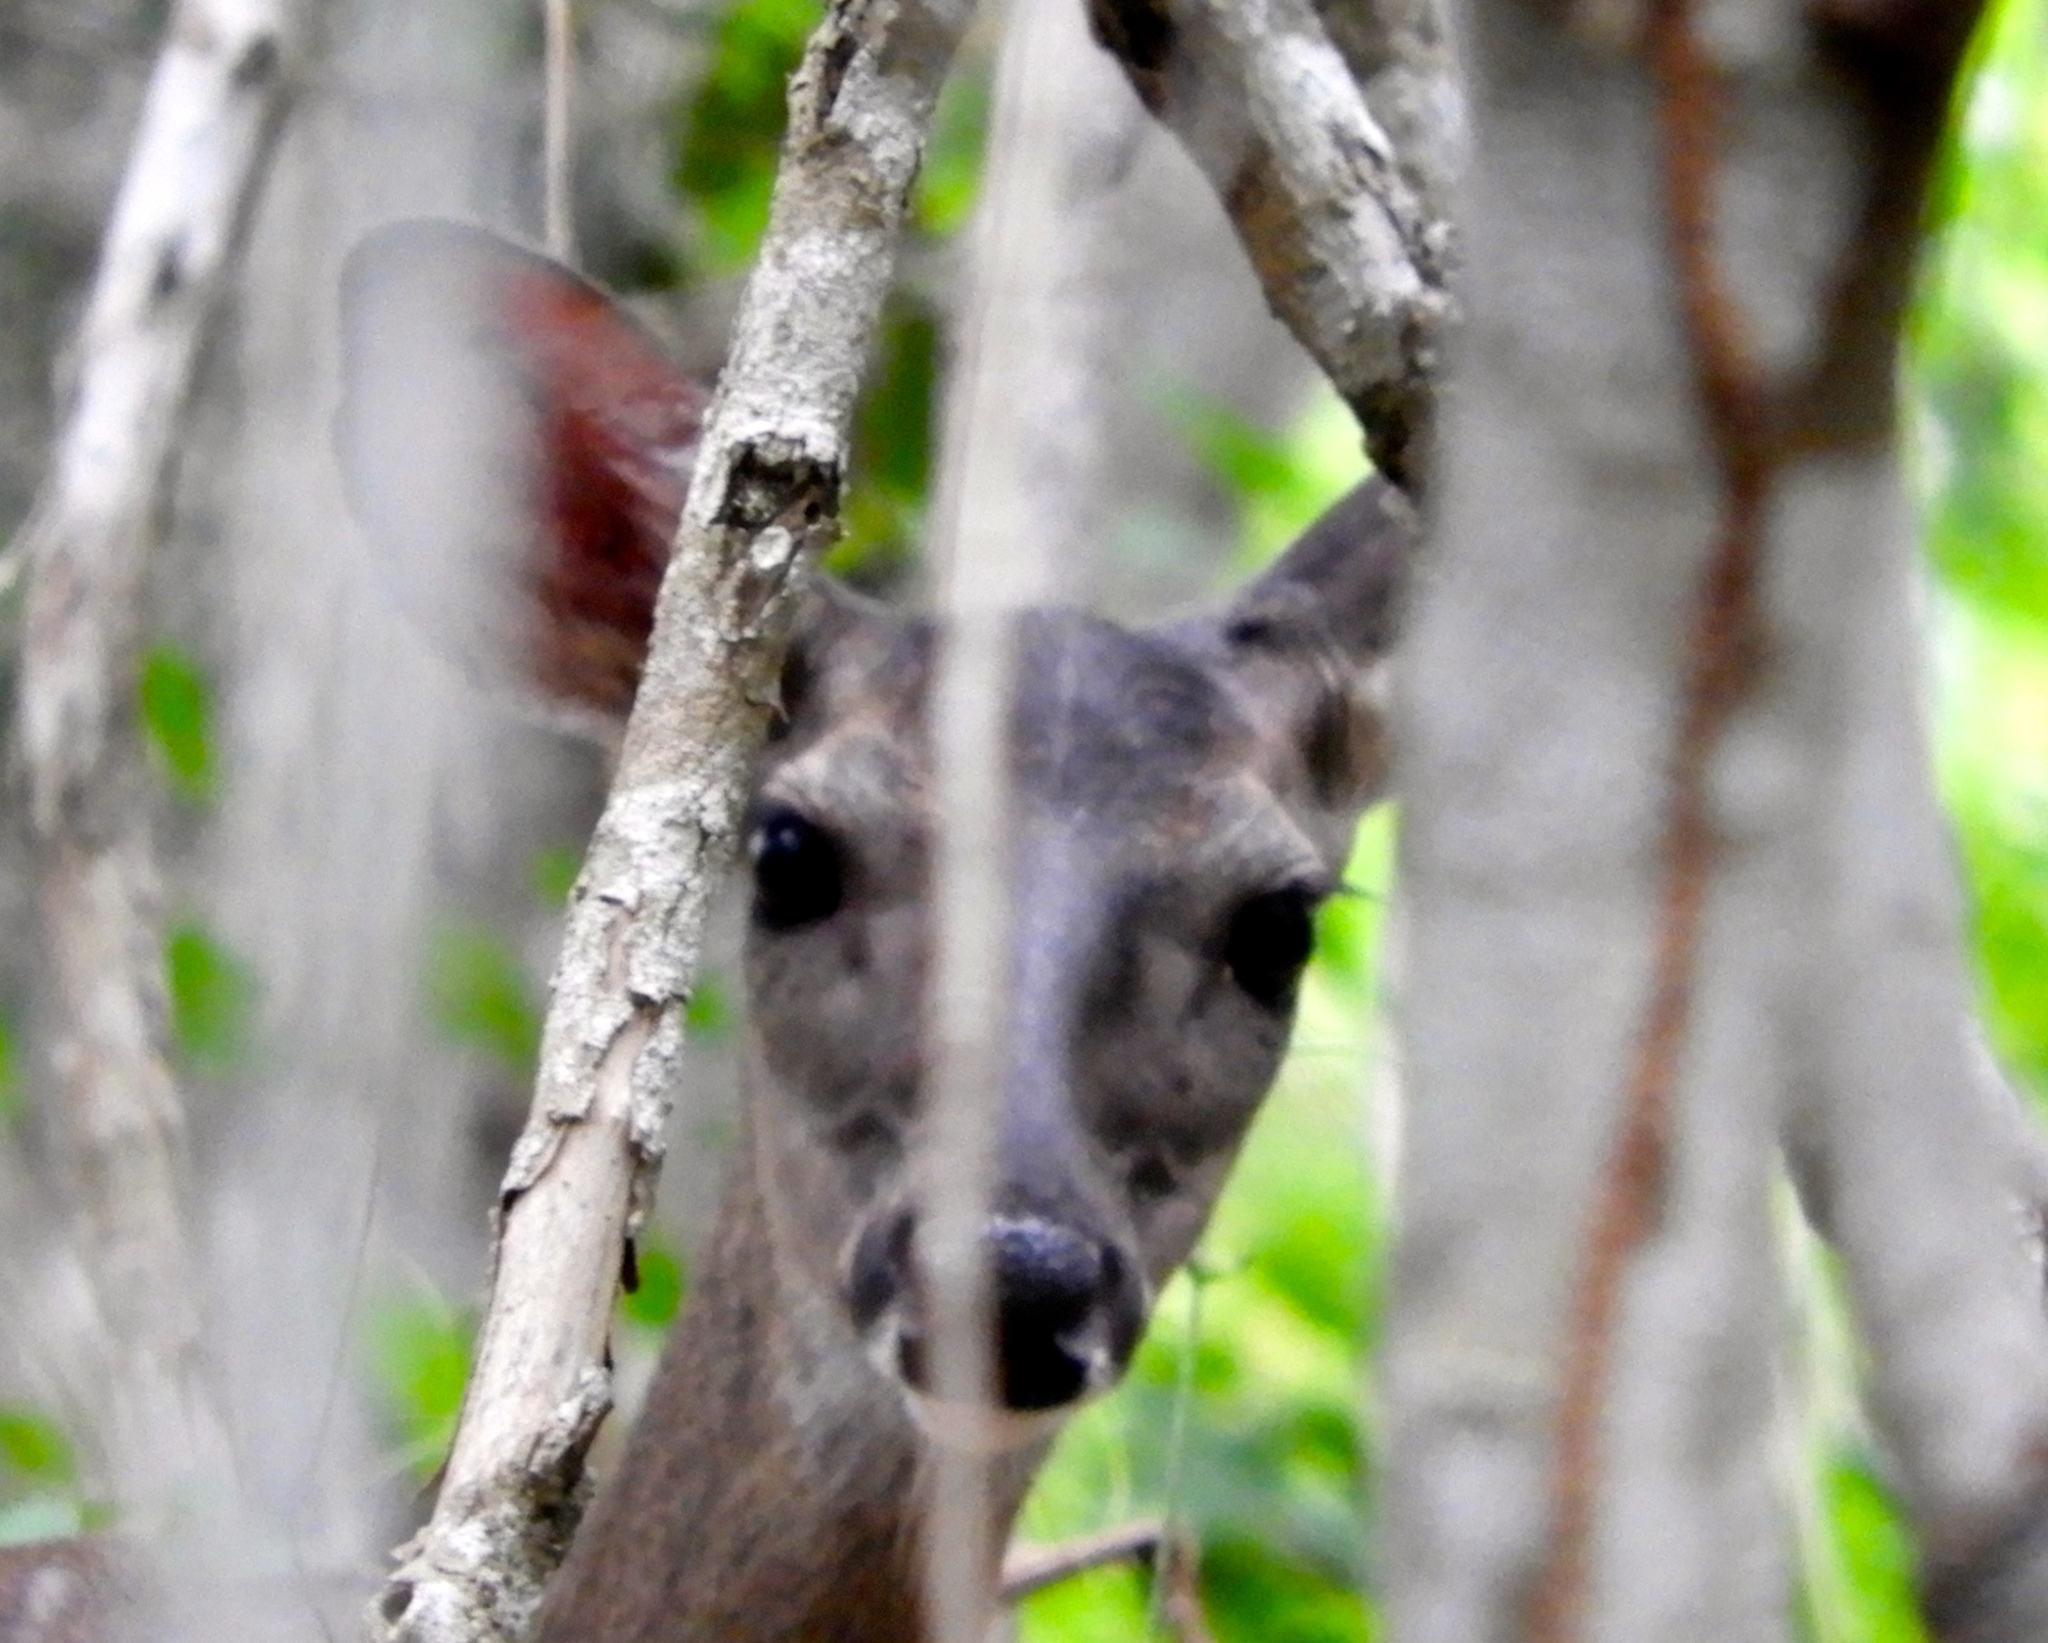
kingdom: Animalia
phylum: Chordata
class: Mammalia
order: Artiodactyla
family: Cervidae
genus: Odocoileus
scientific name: Odocoileus virginianus
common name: White-tailed deer
